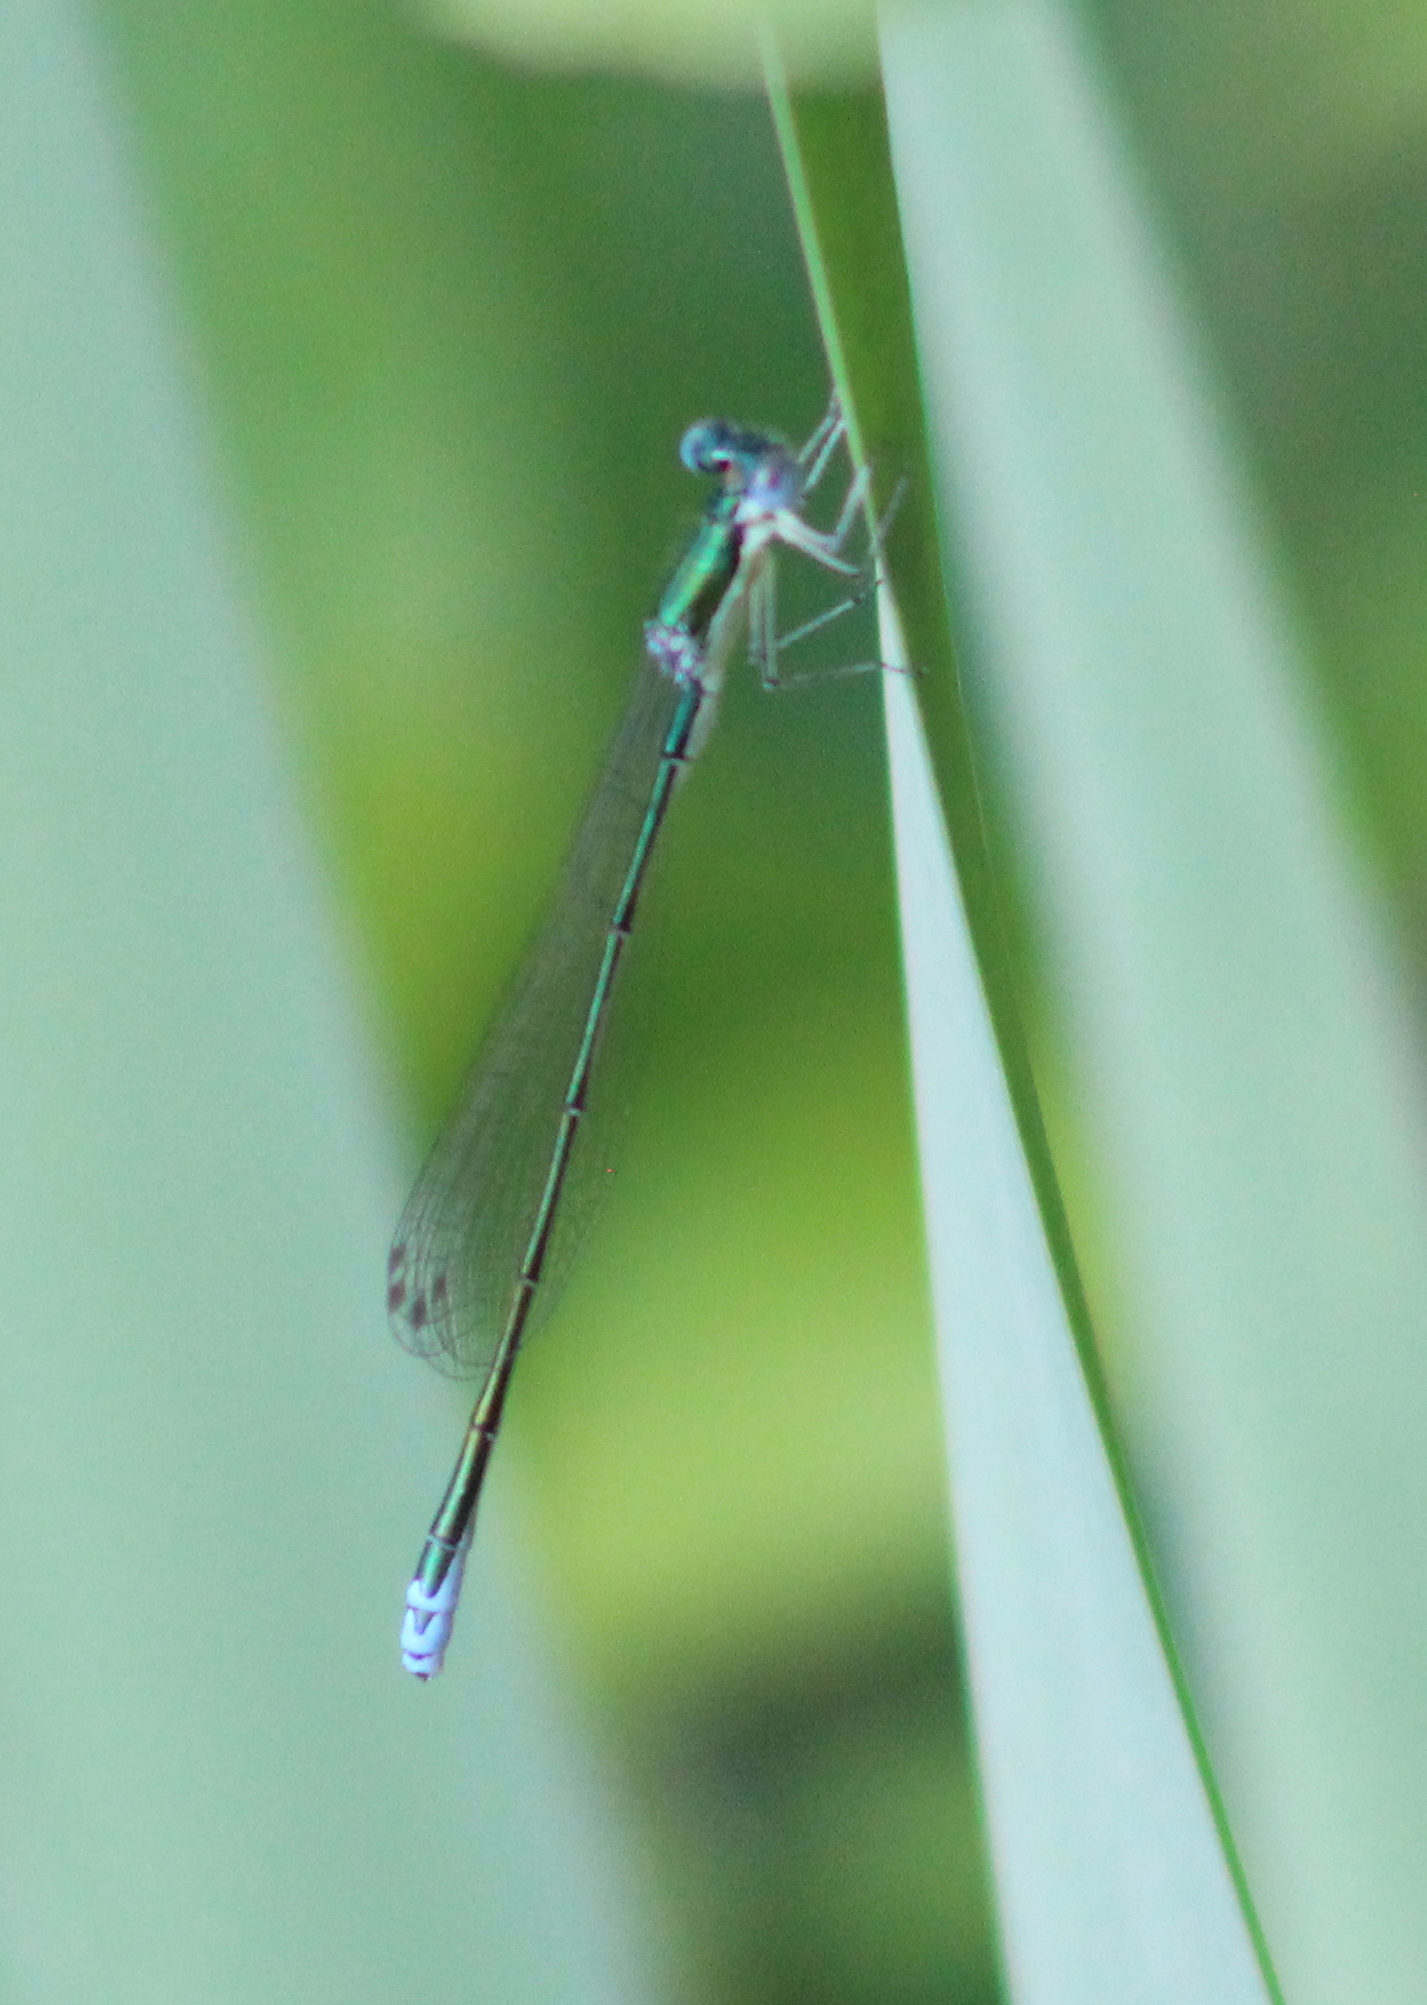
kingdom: Animalia
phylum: Arthropoda
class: Insecta
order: Odonata
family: Coenagrionidae
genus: Nehalennia
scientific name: Nehalennia irene
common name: Sedge sprite
